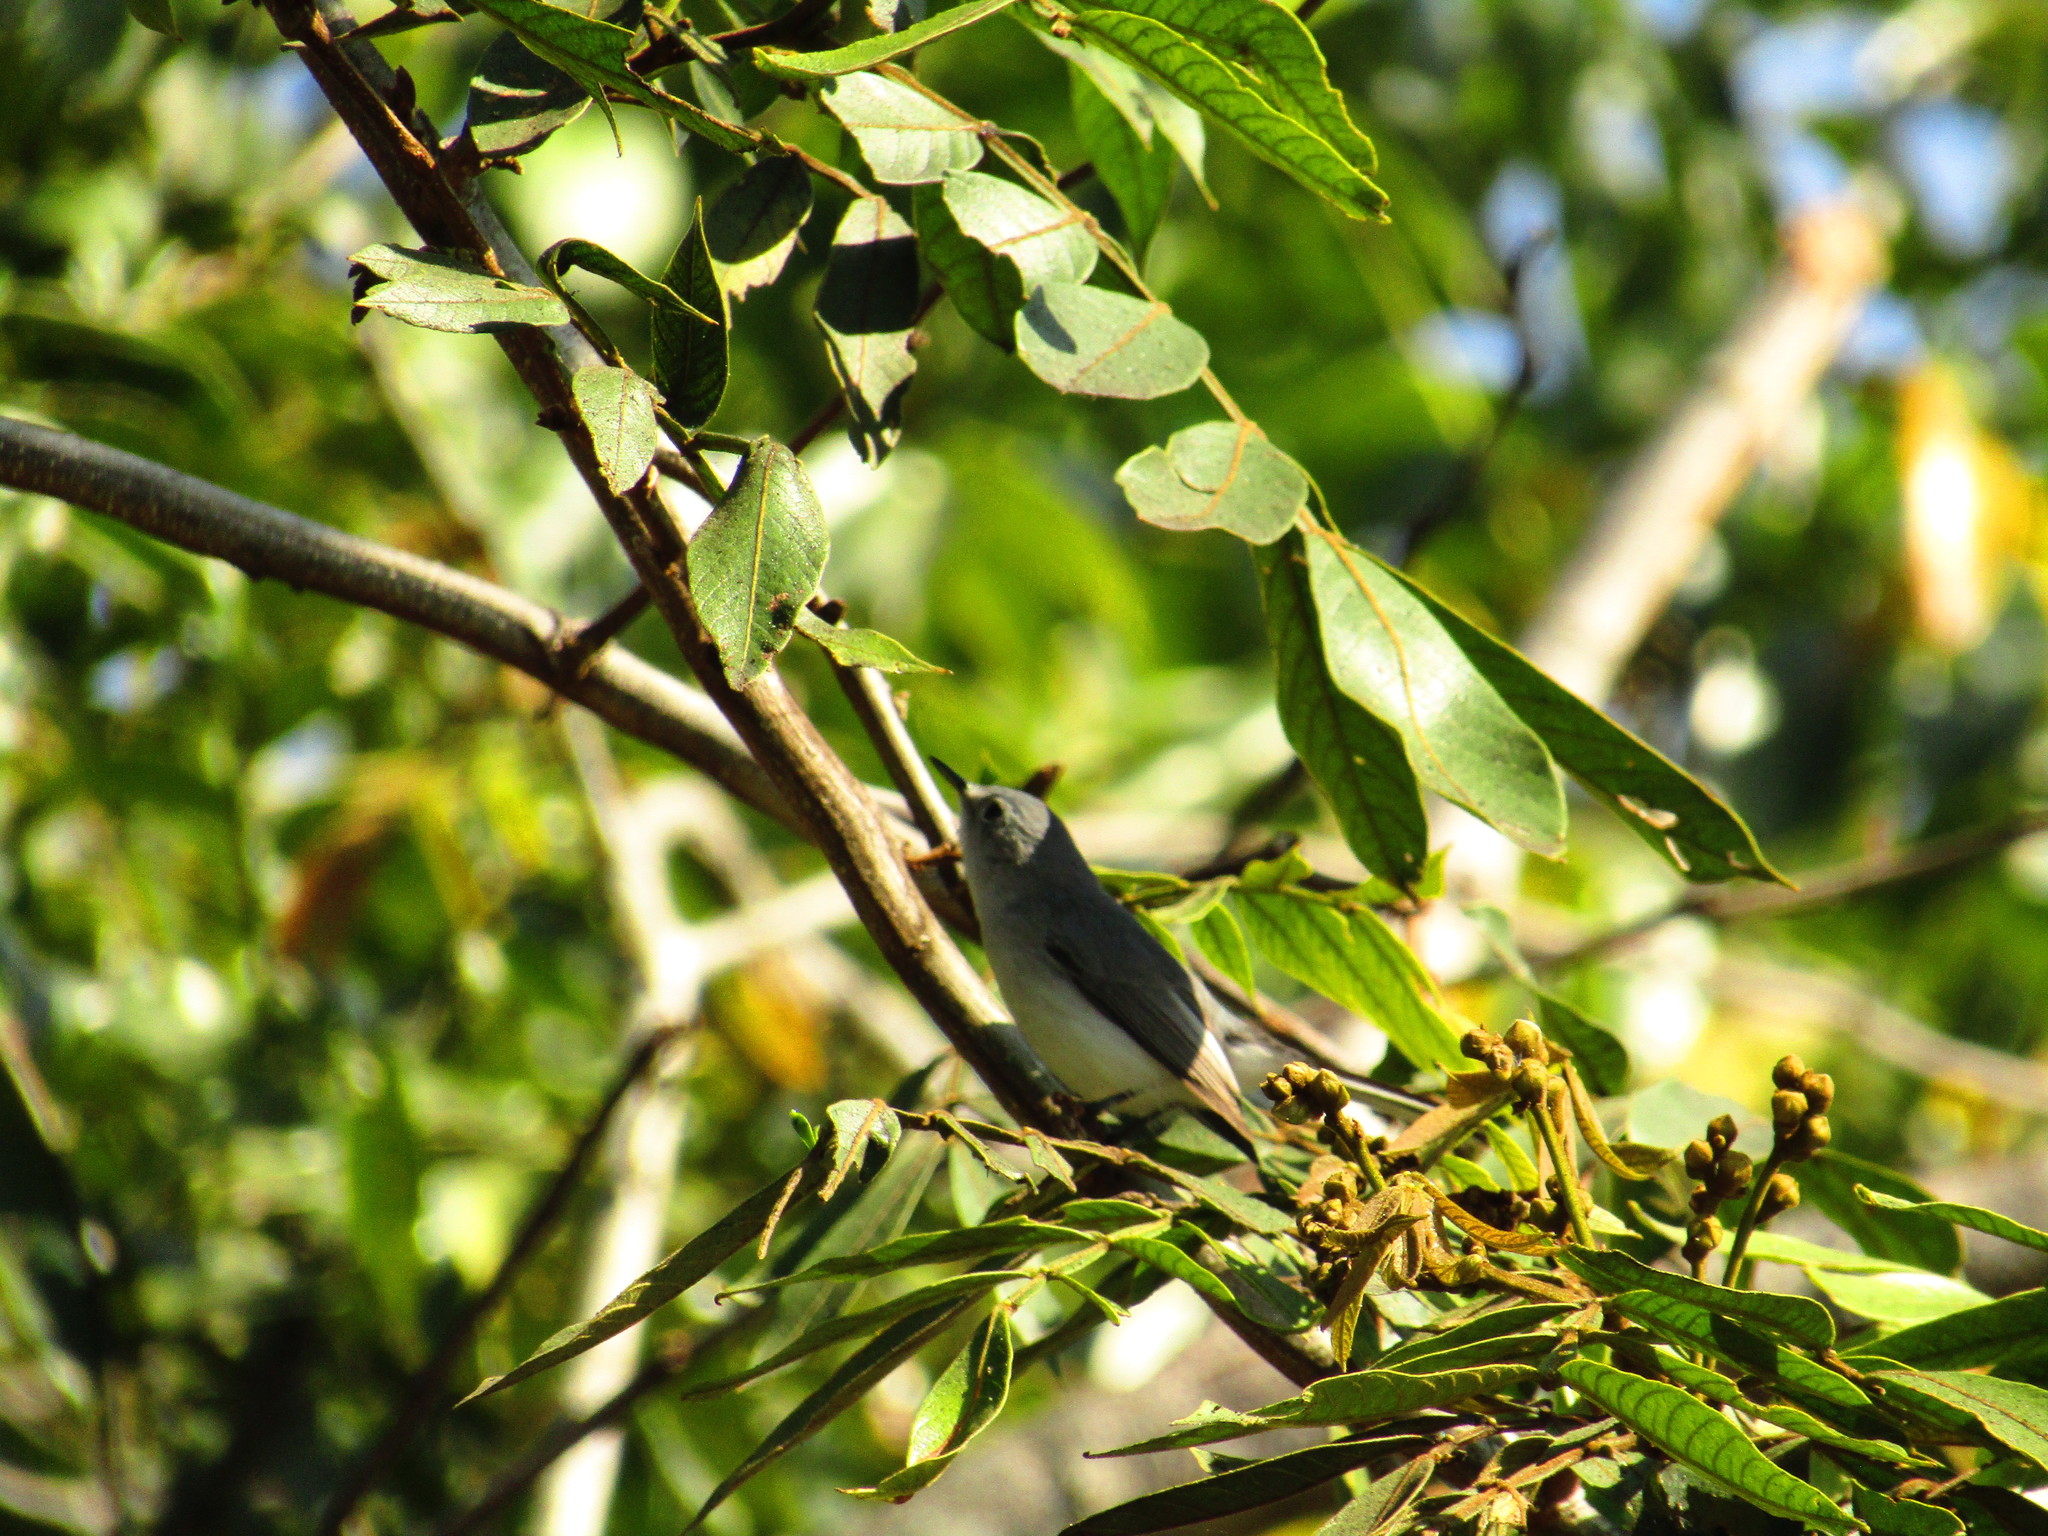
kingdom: Animalia
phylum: Chordata
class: Aves
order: Passeriformes
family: Polioptilidae
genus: Polioptila
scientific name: Polioptila caerulea
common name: Blue-gray gnatcatcher
